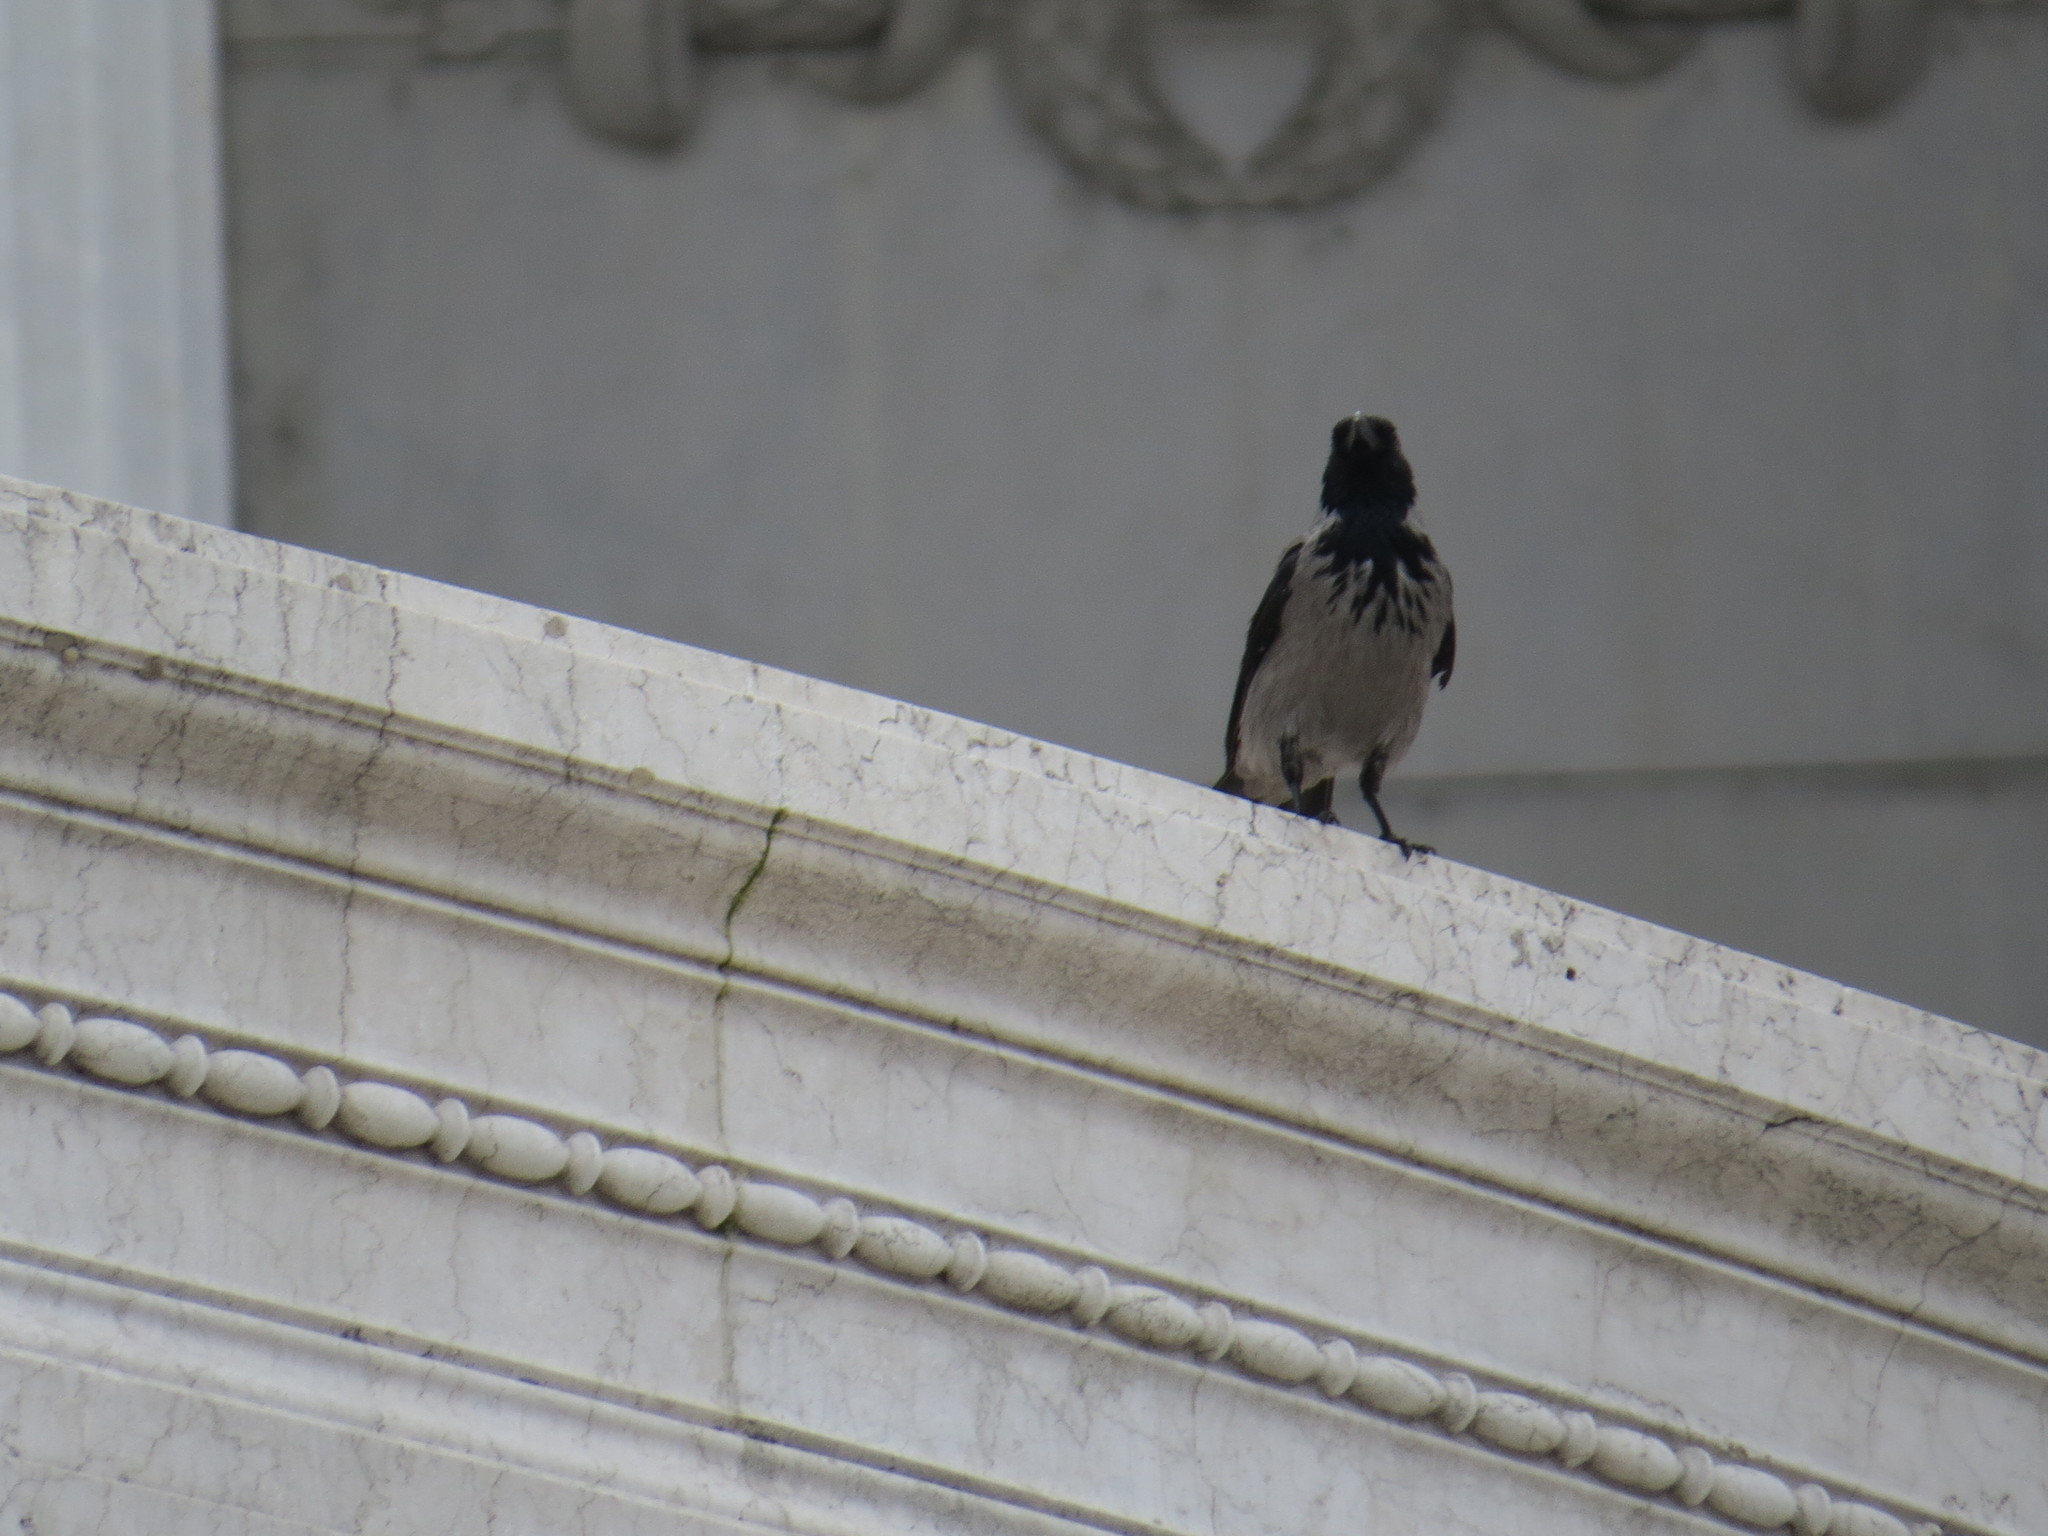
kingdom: Animalia
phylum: Chordata
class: Aves
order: Passeriformes
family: Corvidae
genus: Corvus
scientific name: Corvus cornix
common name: Hooded crow
